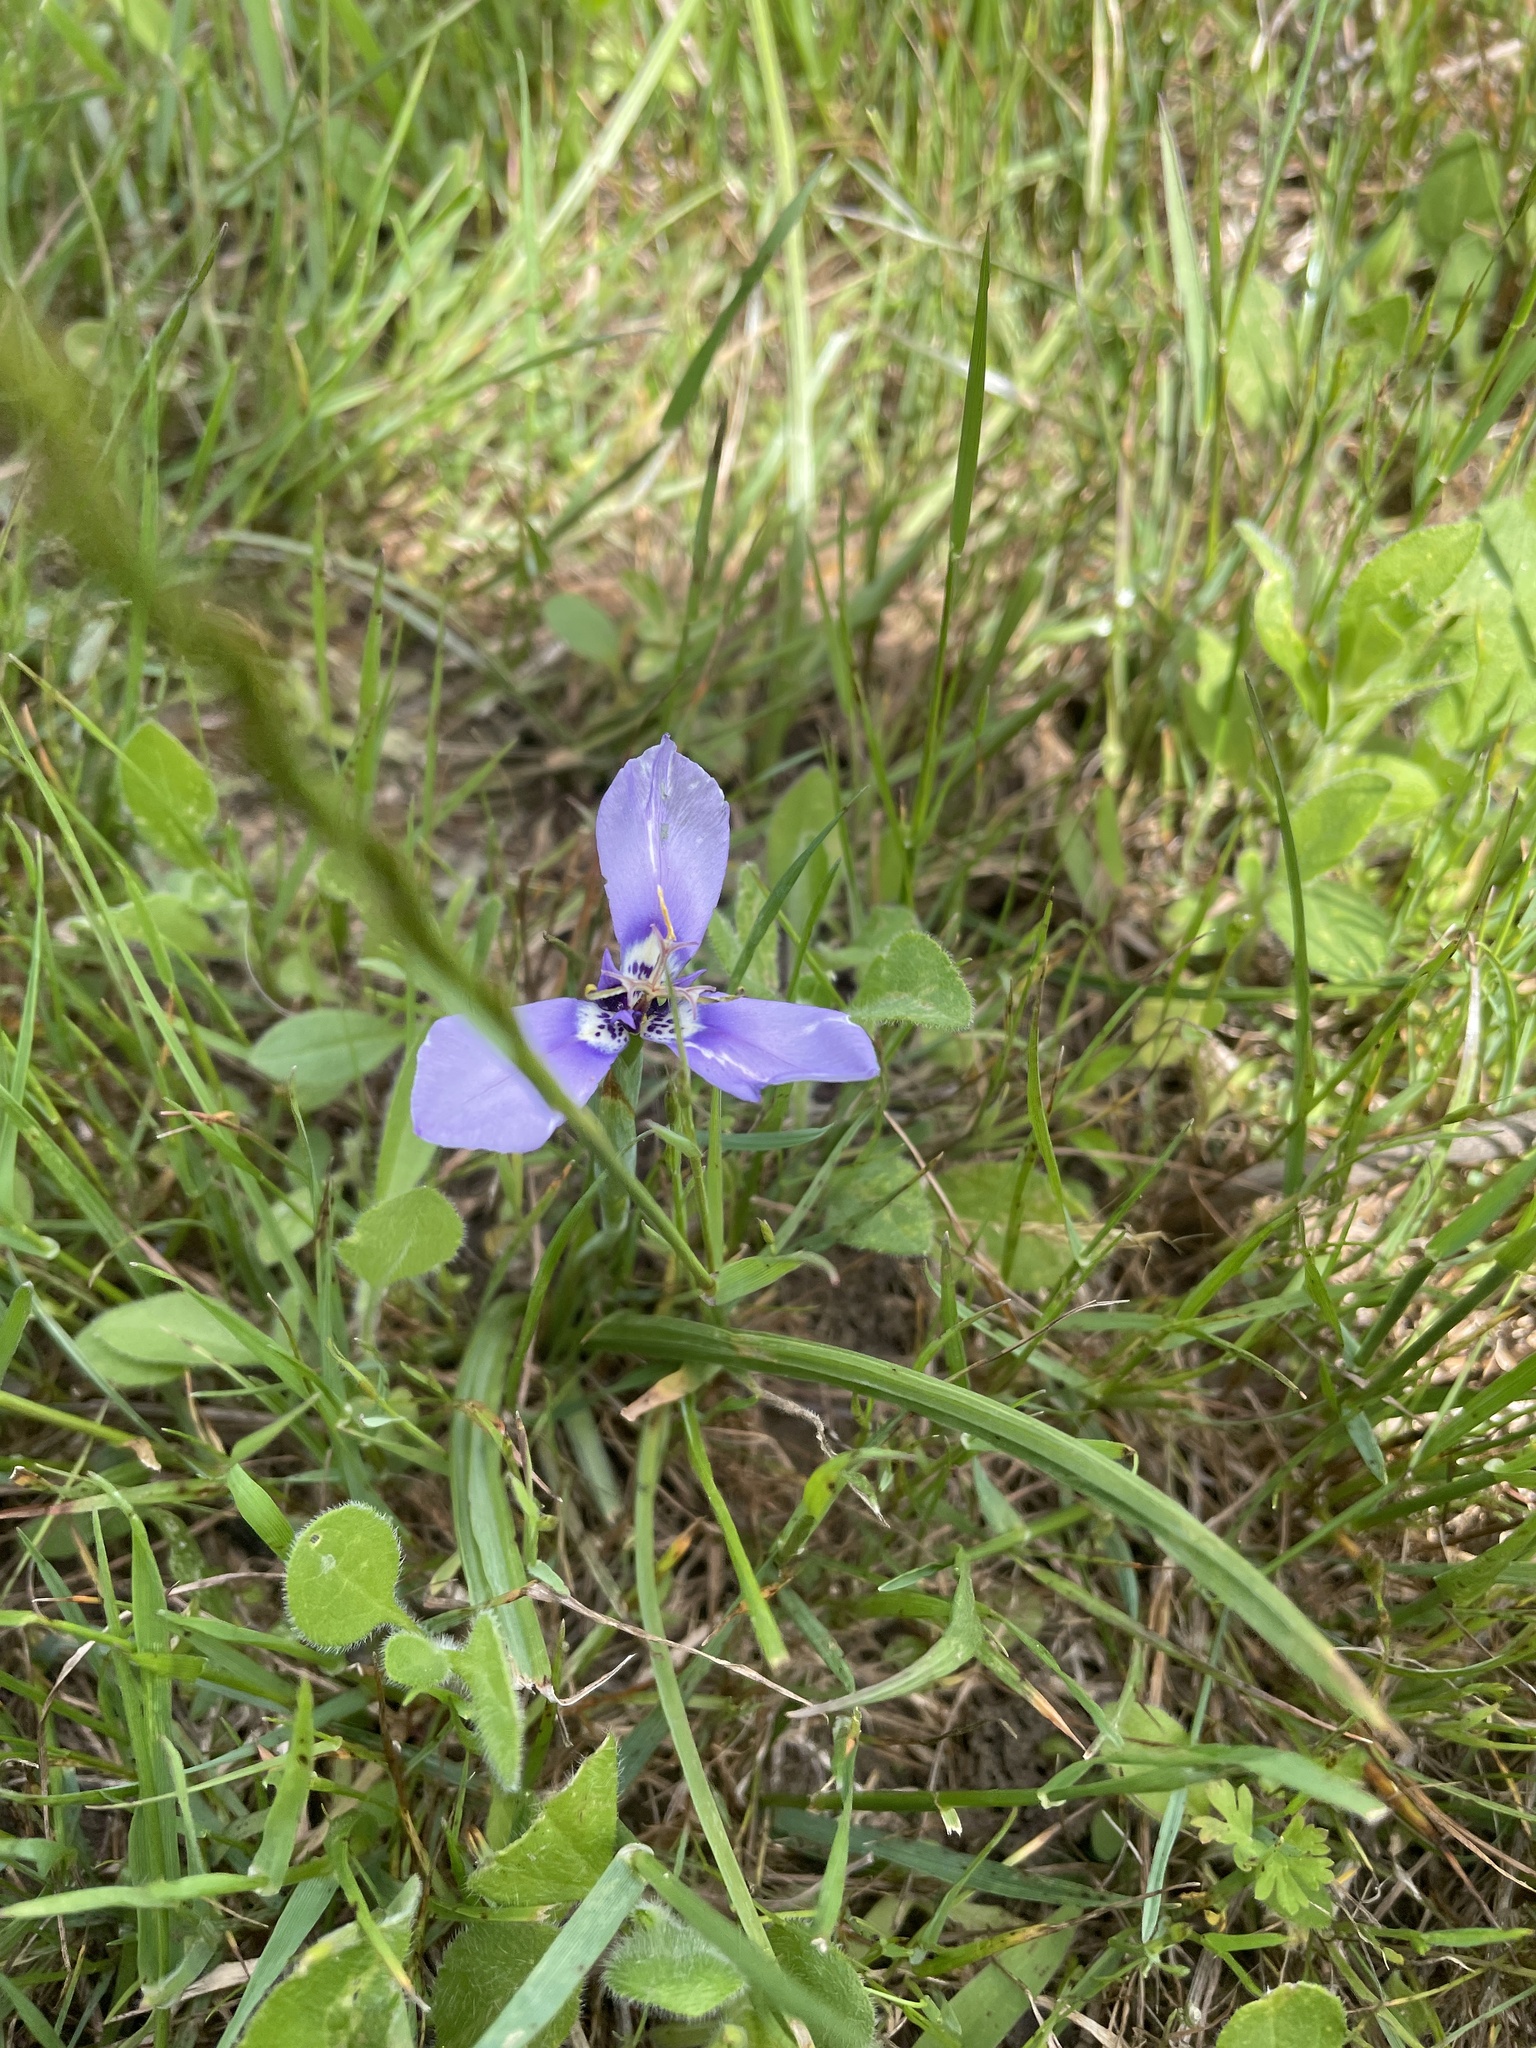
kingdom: Plantae
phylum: Tracheophyta
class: Liliopsida
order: Asparagales
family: Iridaceae
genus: Herbertia
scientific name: Herbertia lahue
